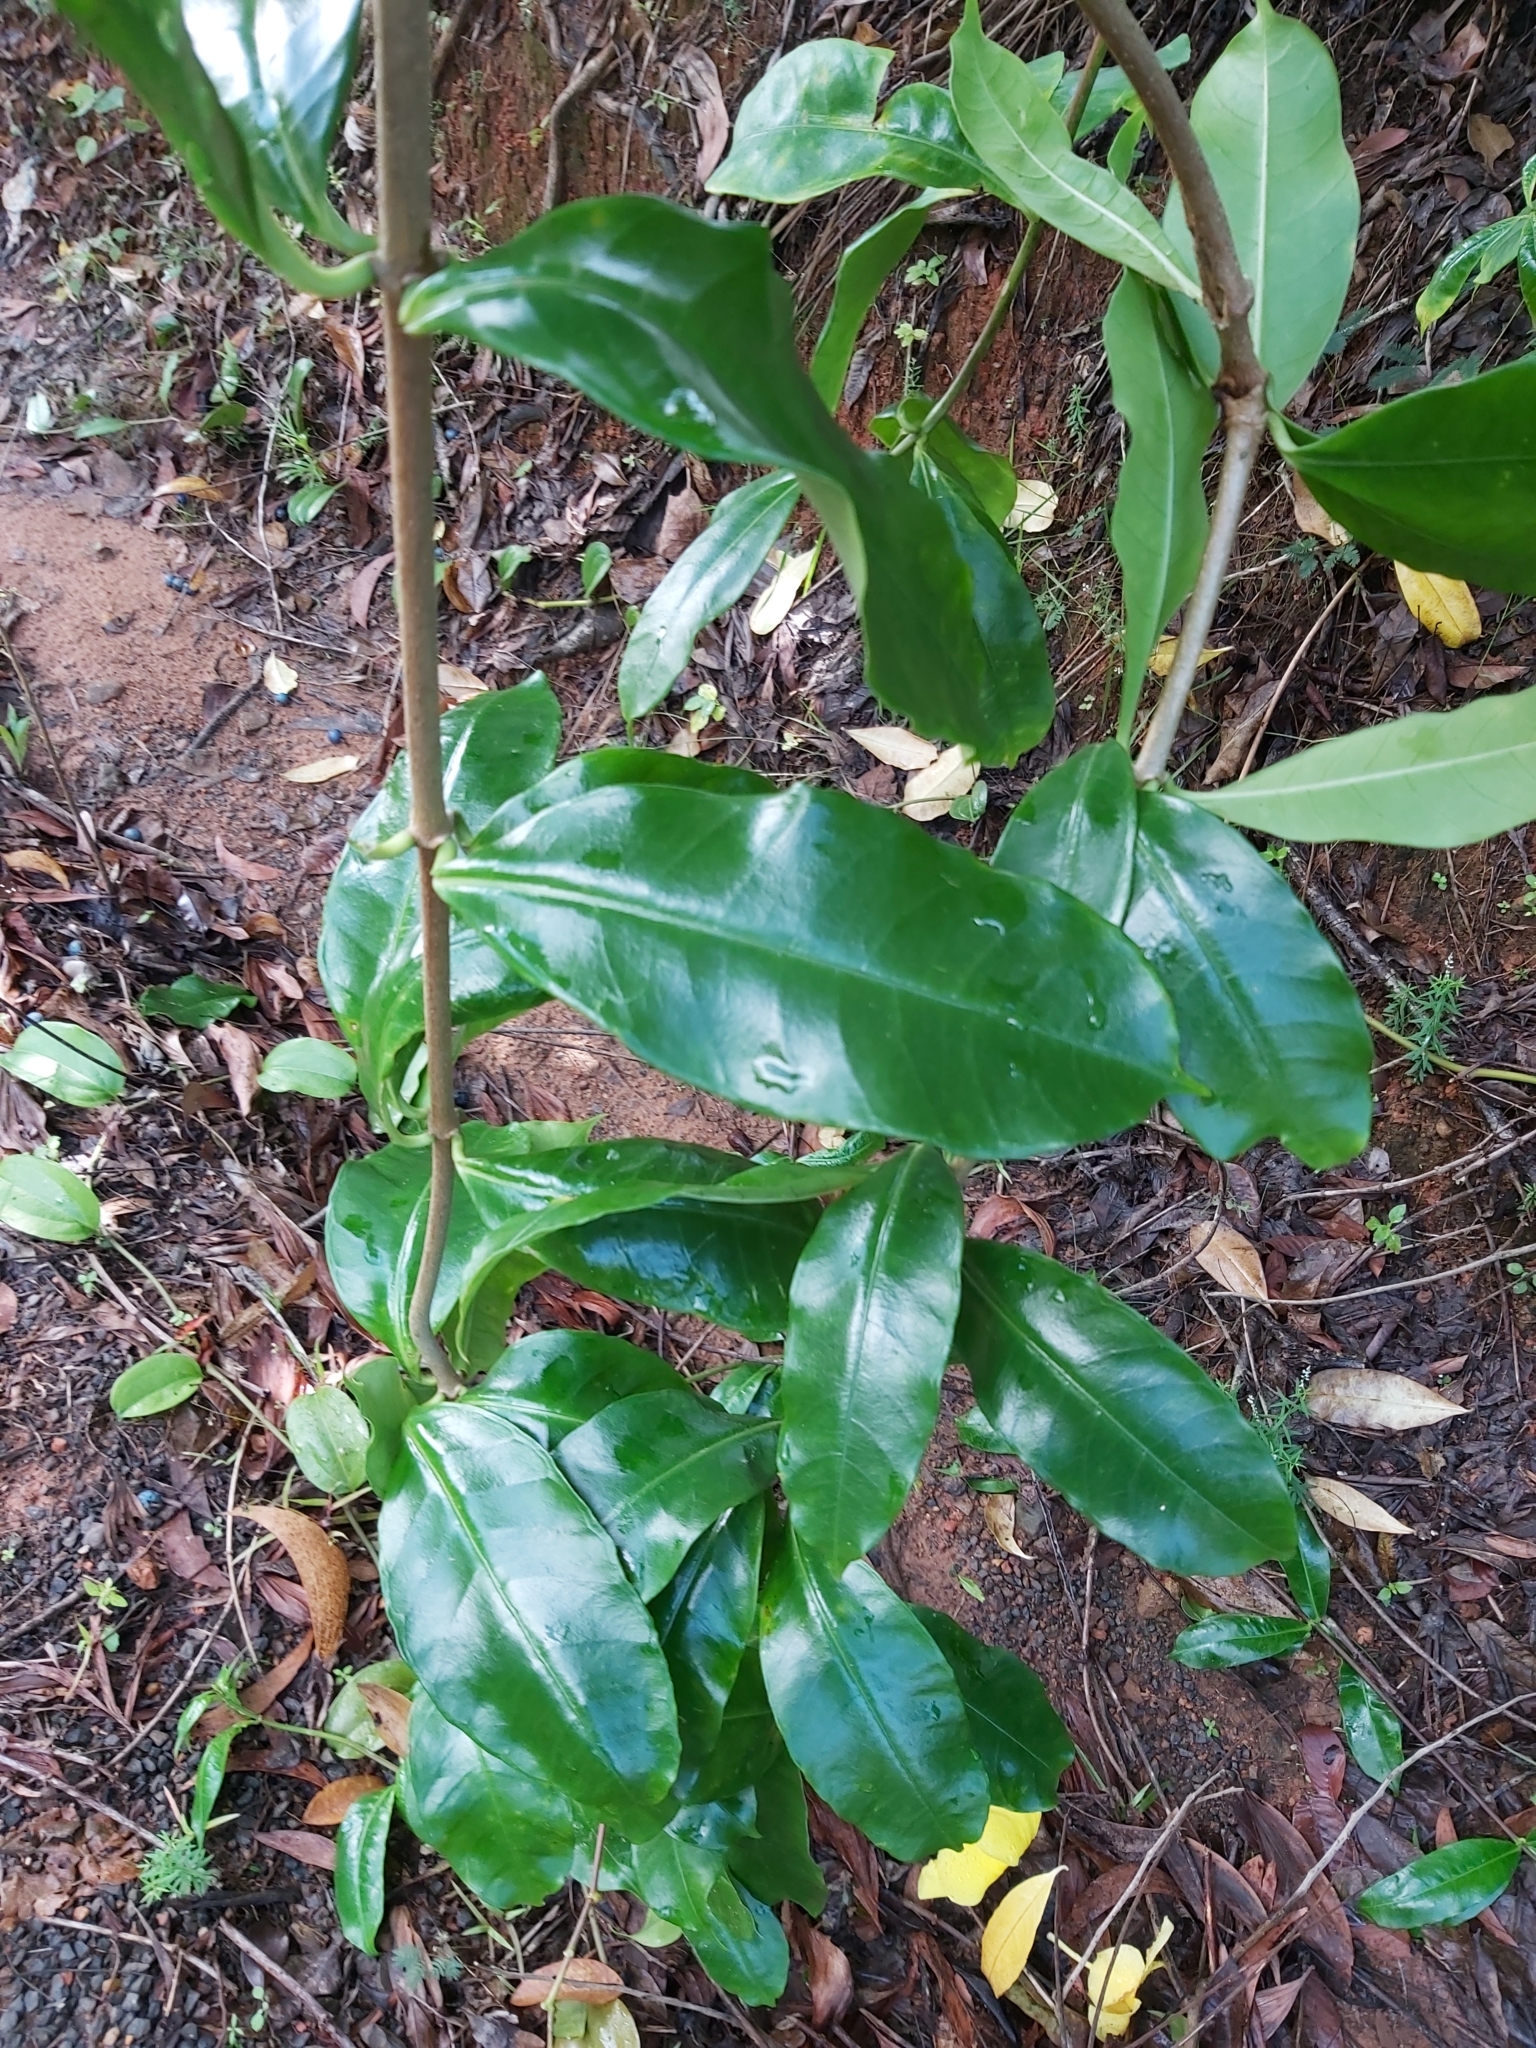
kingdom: Plantae
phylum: Tracheophyta
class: Magnoliopsida
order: Gentianales
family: Apocynaceae
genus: Allamanda
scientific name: Allamanda cathartica
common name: Golden trumpet
